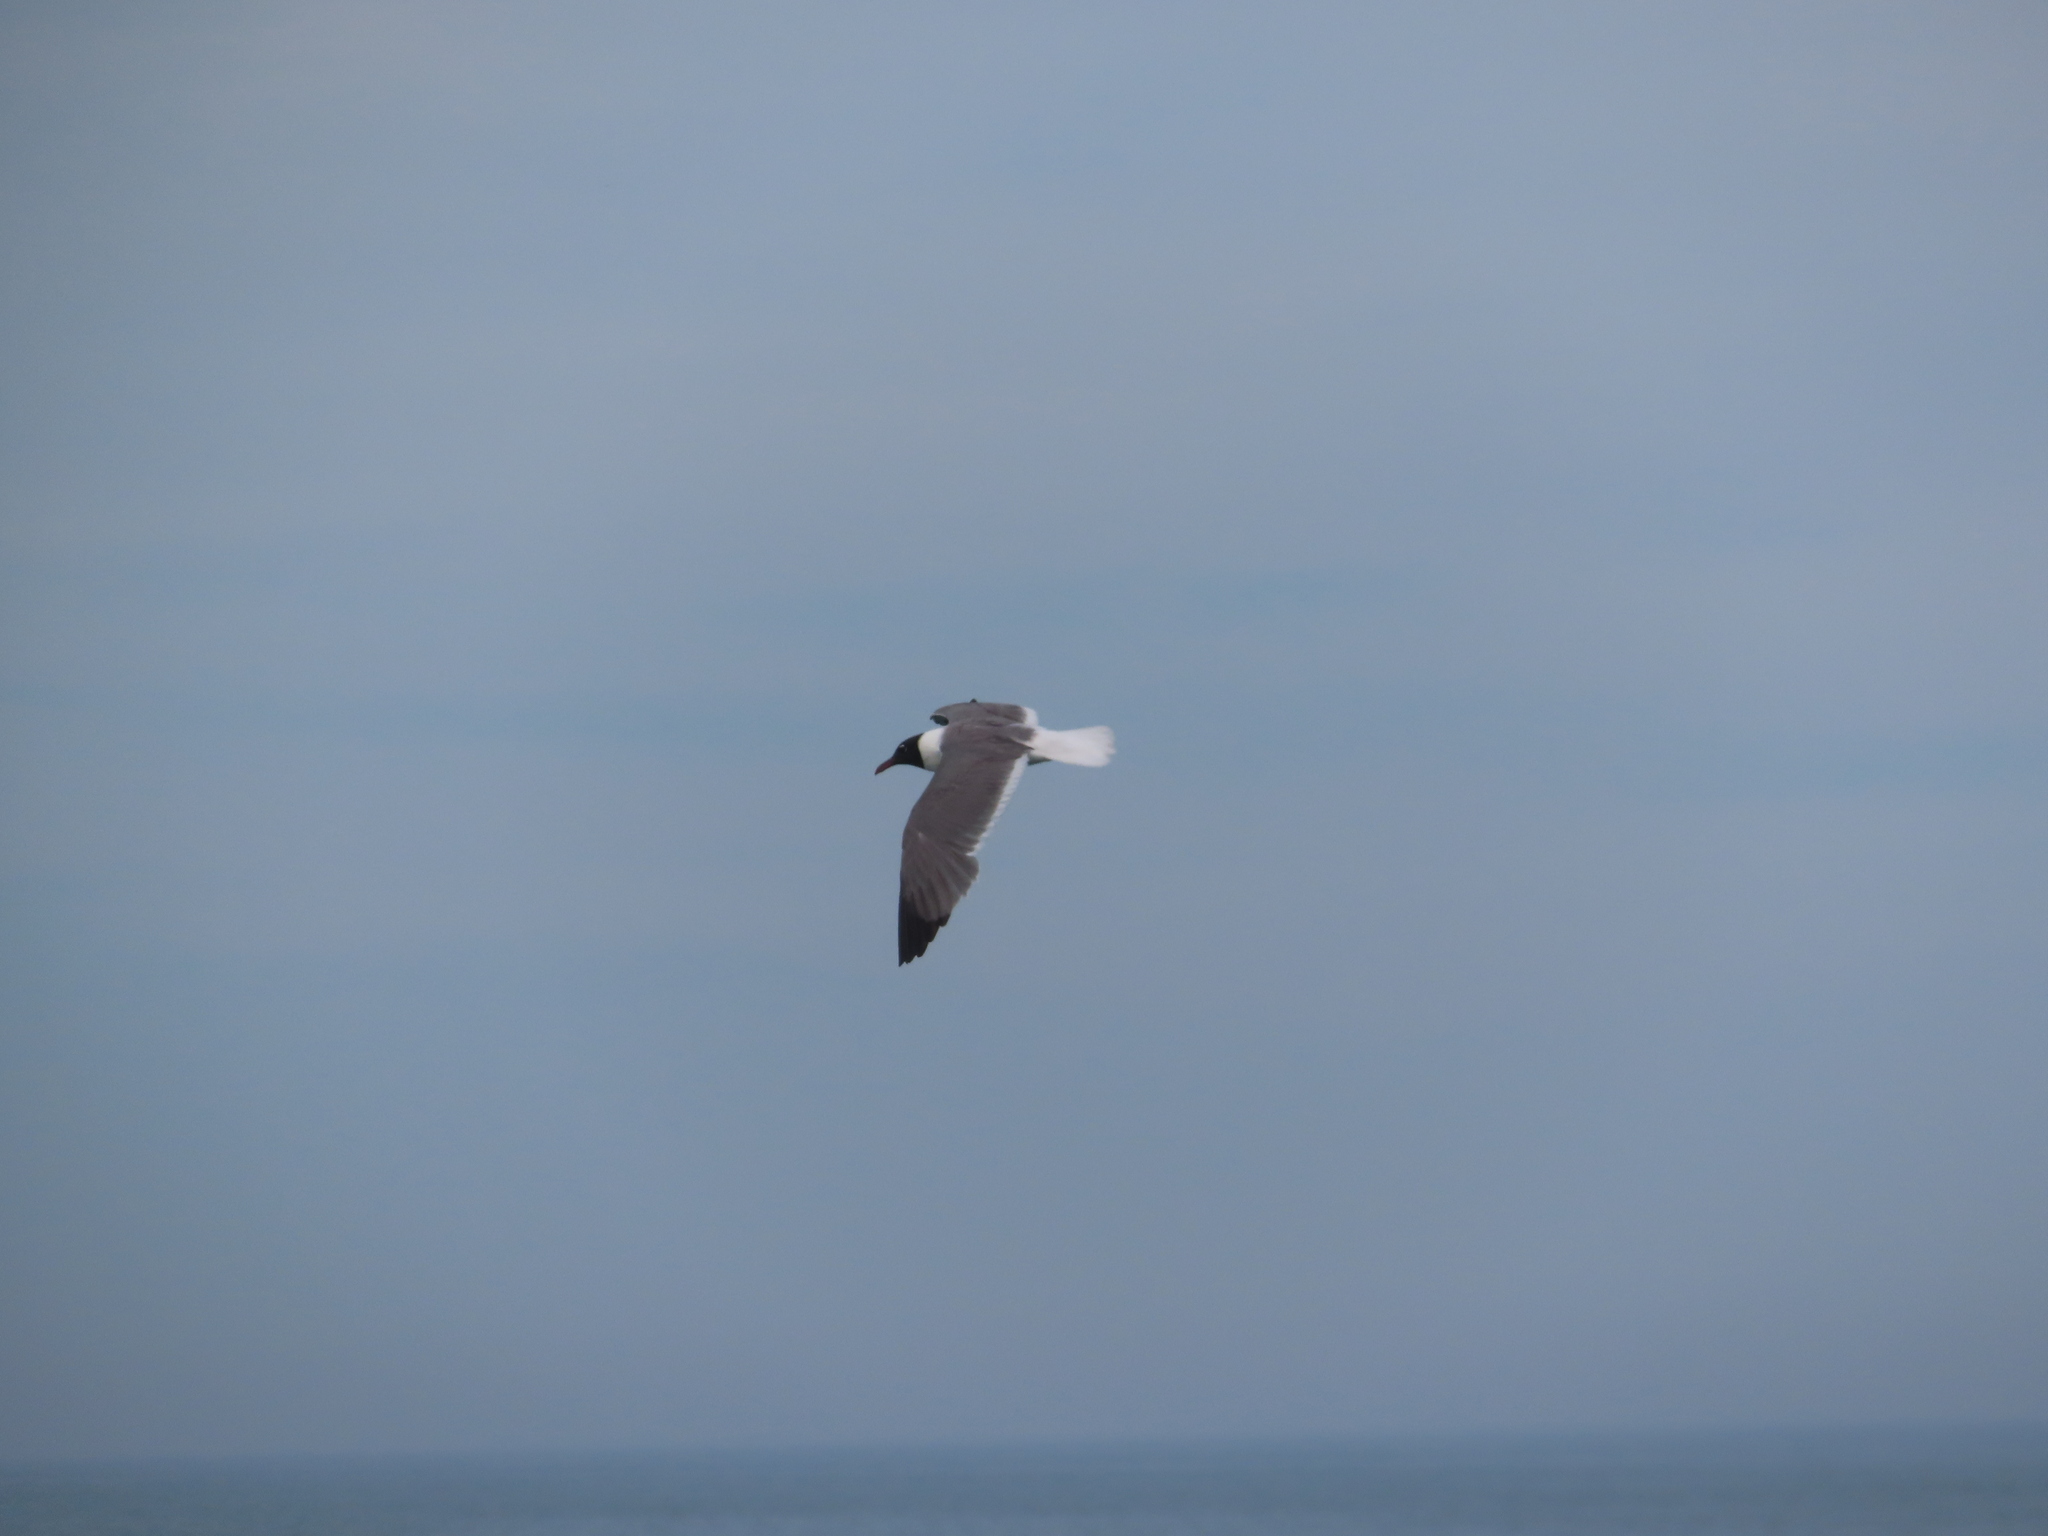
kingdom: Animalia
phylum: Chordata
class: Aves
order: Charadriiformes
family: Laridae
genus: Leucophaeus
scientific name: Leucophaeus atricilla
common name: Laughing gull
